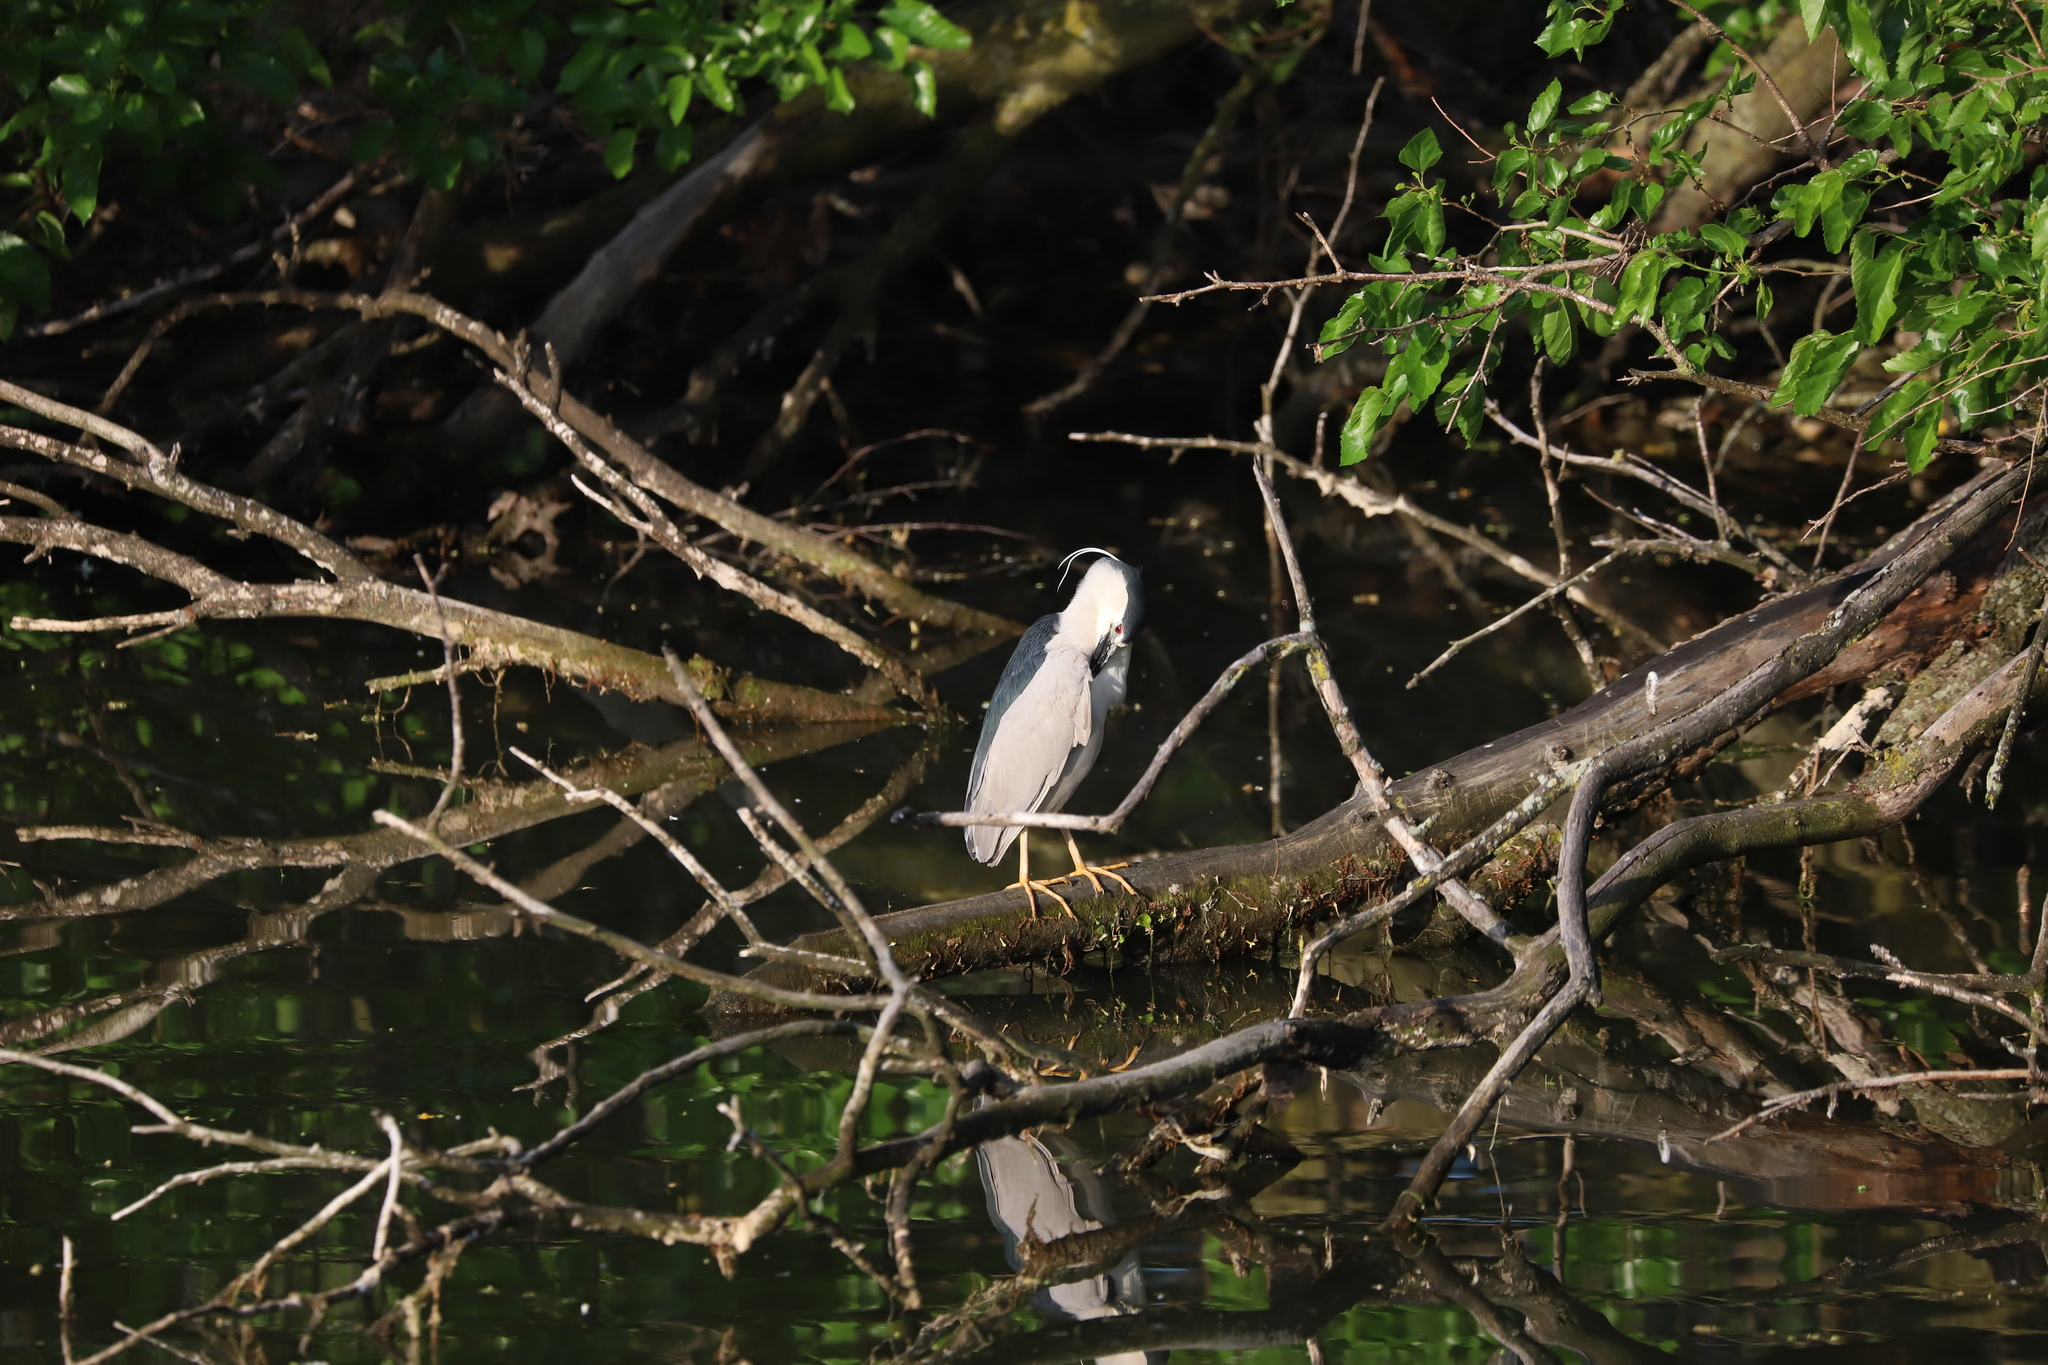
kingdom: Animalia
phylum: Chordata
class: Aves
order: Pelecaniformes
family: Ardeidae
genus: Nycticorax
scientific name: Nycticorax nycticorax
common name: Black-crowned night heron
